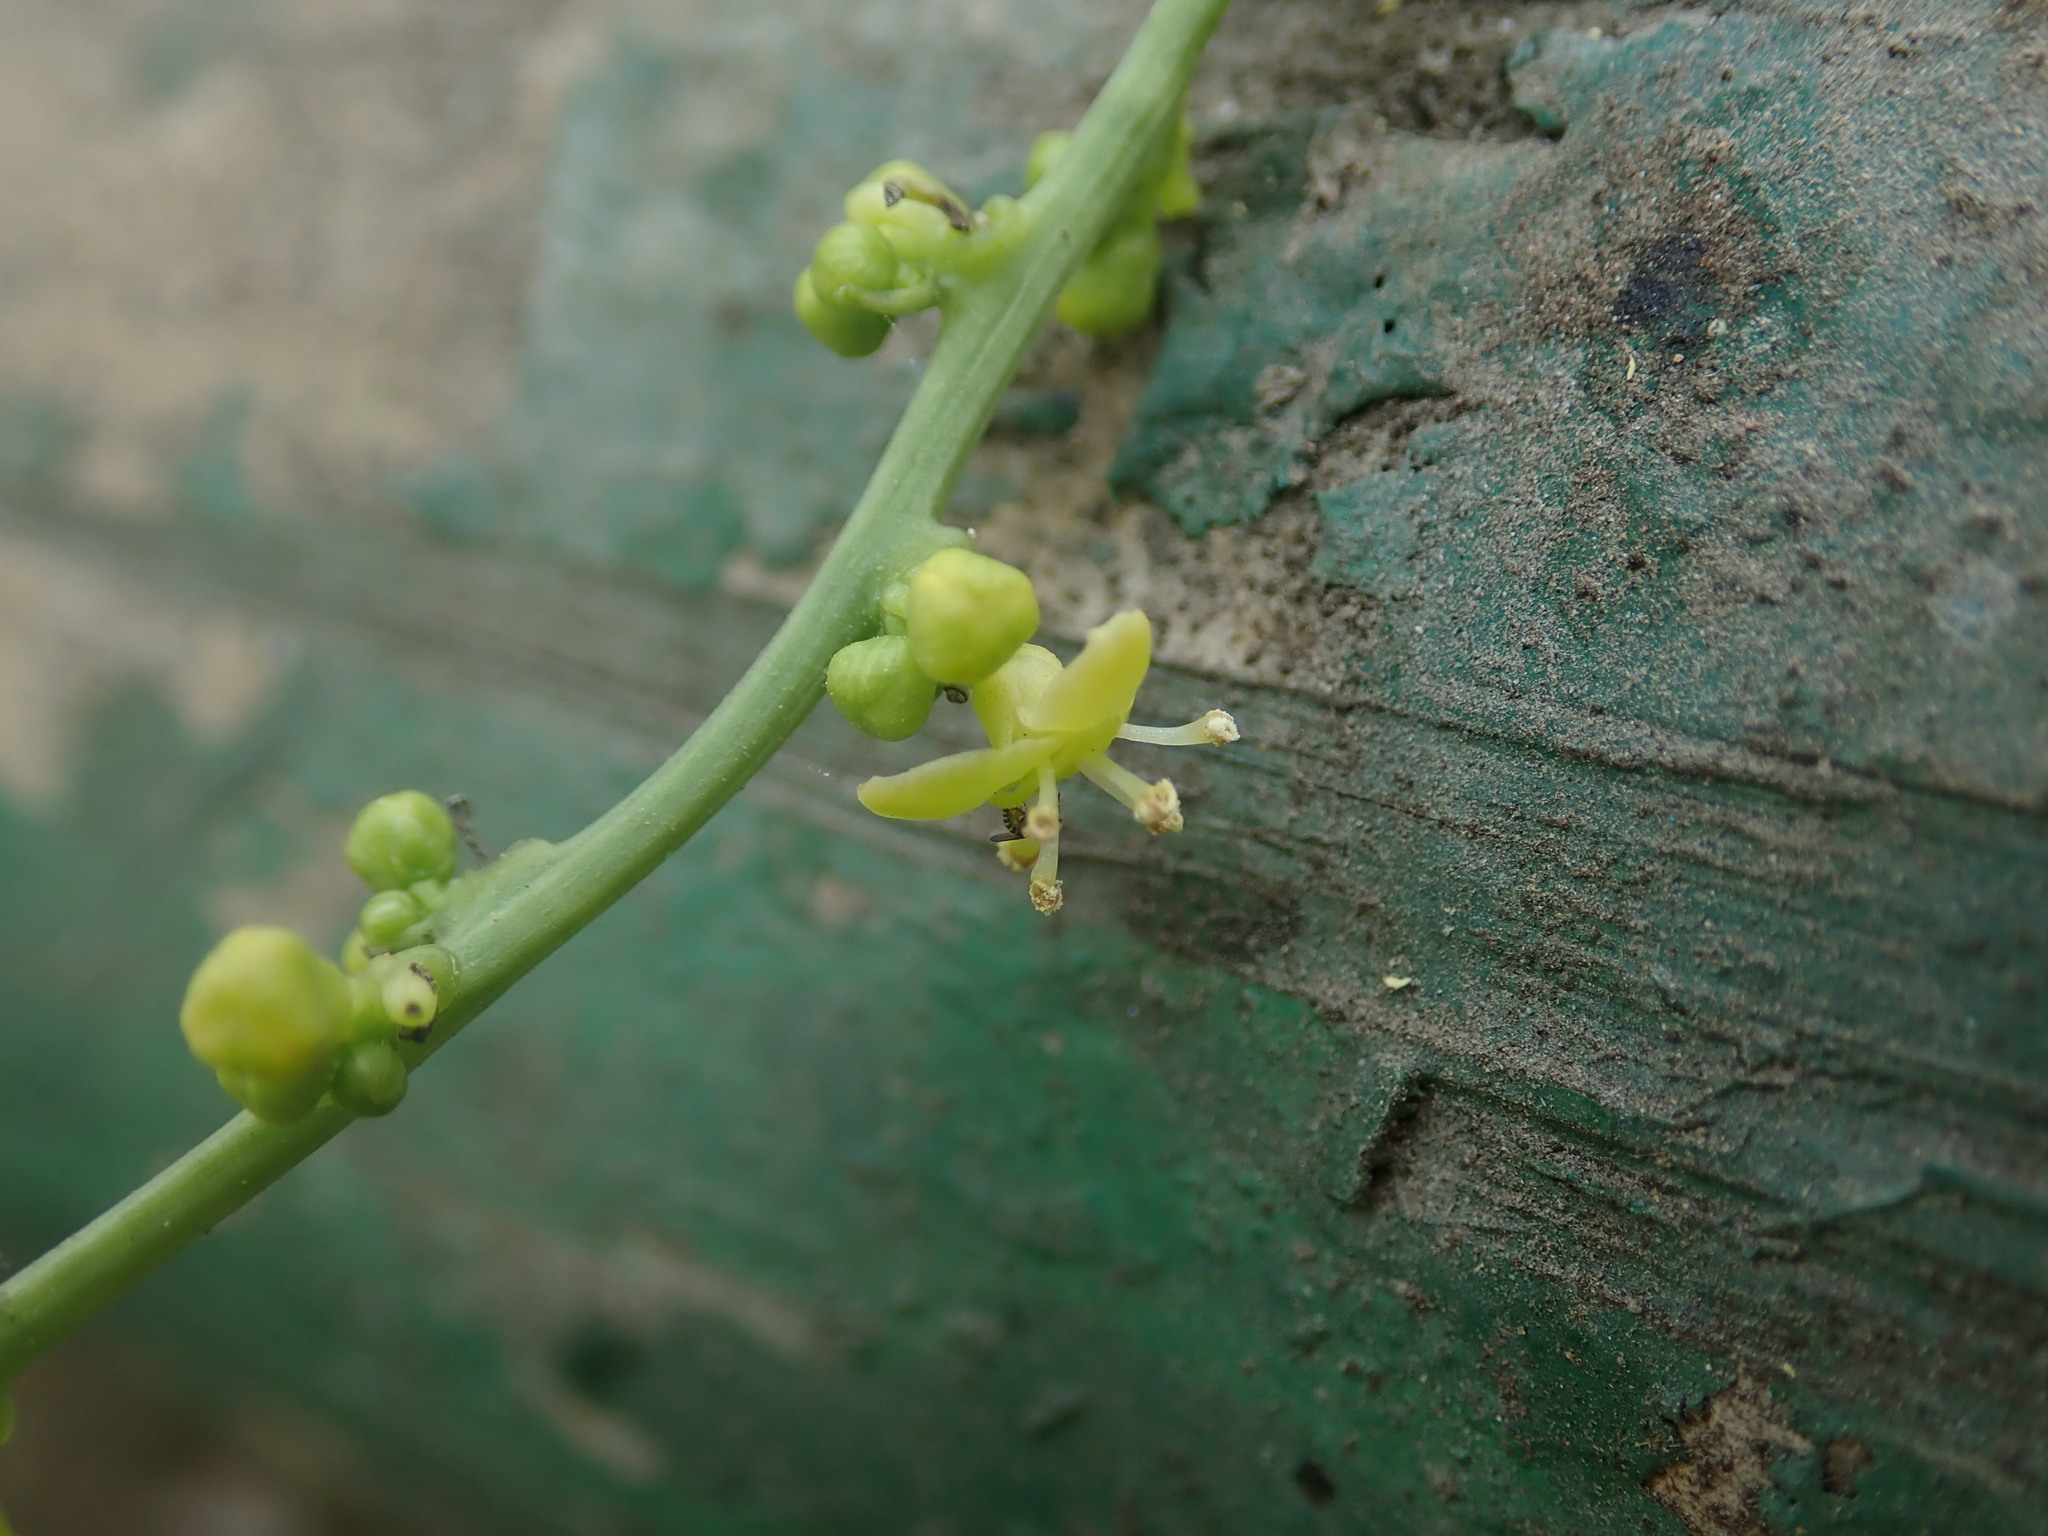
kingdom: Plantae
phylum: Tracheophyta
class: Magnoliopsida
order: Ranunculales
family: Menispermaceae
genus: Tinospora
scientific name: Tinospora cordifolia
